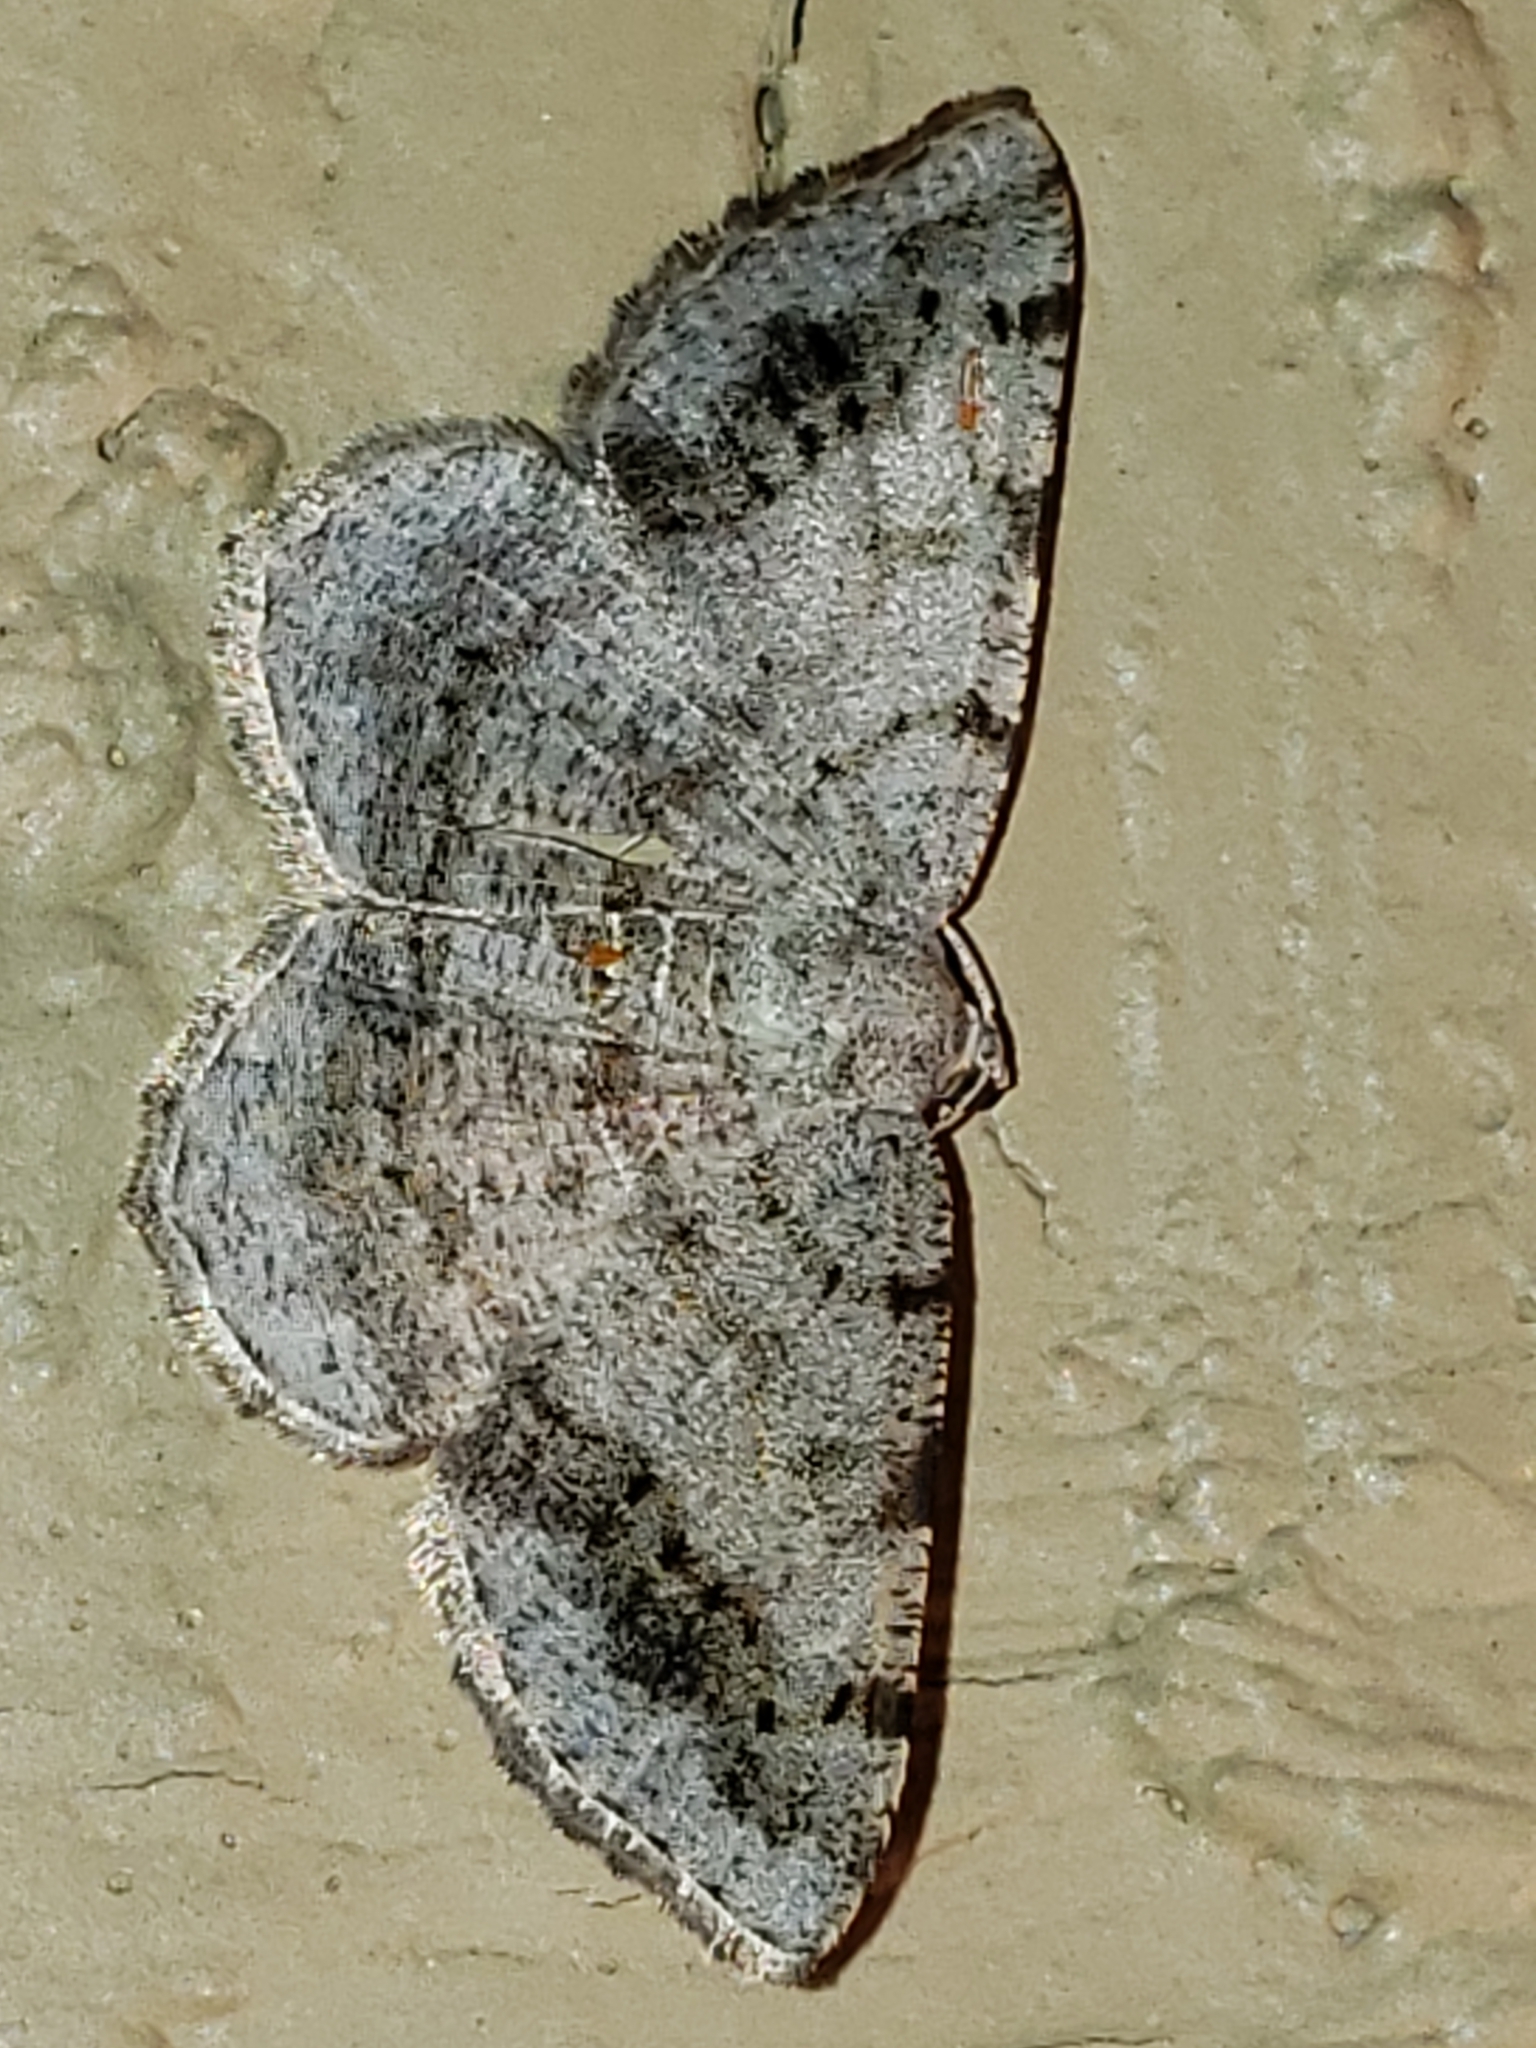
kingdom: Animalia
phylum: Arthropoda
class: Insecta
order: Lepidoptera
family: Geometridae
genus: Digrammia
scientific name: Digrammia ocellinata
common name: Faint-spotted angle
